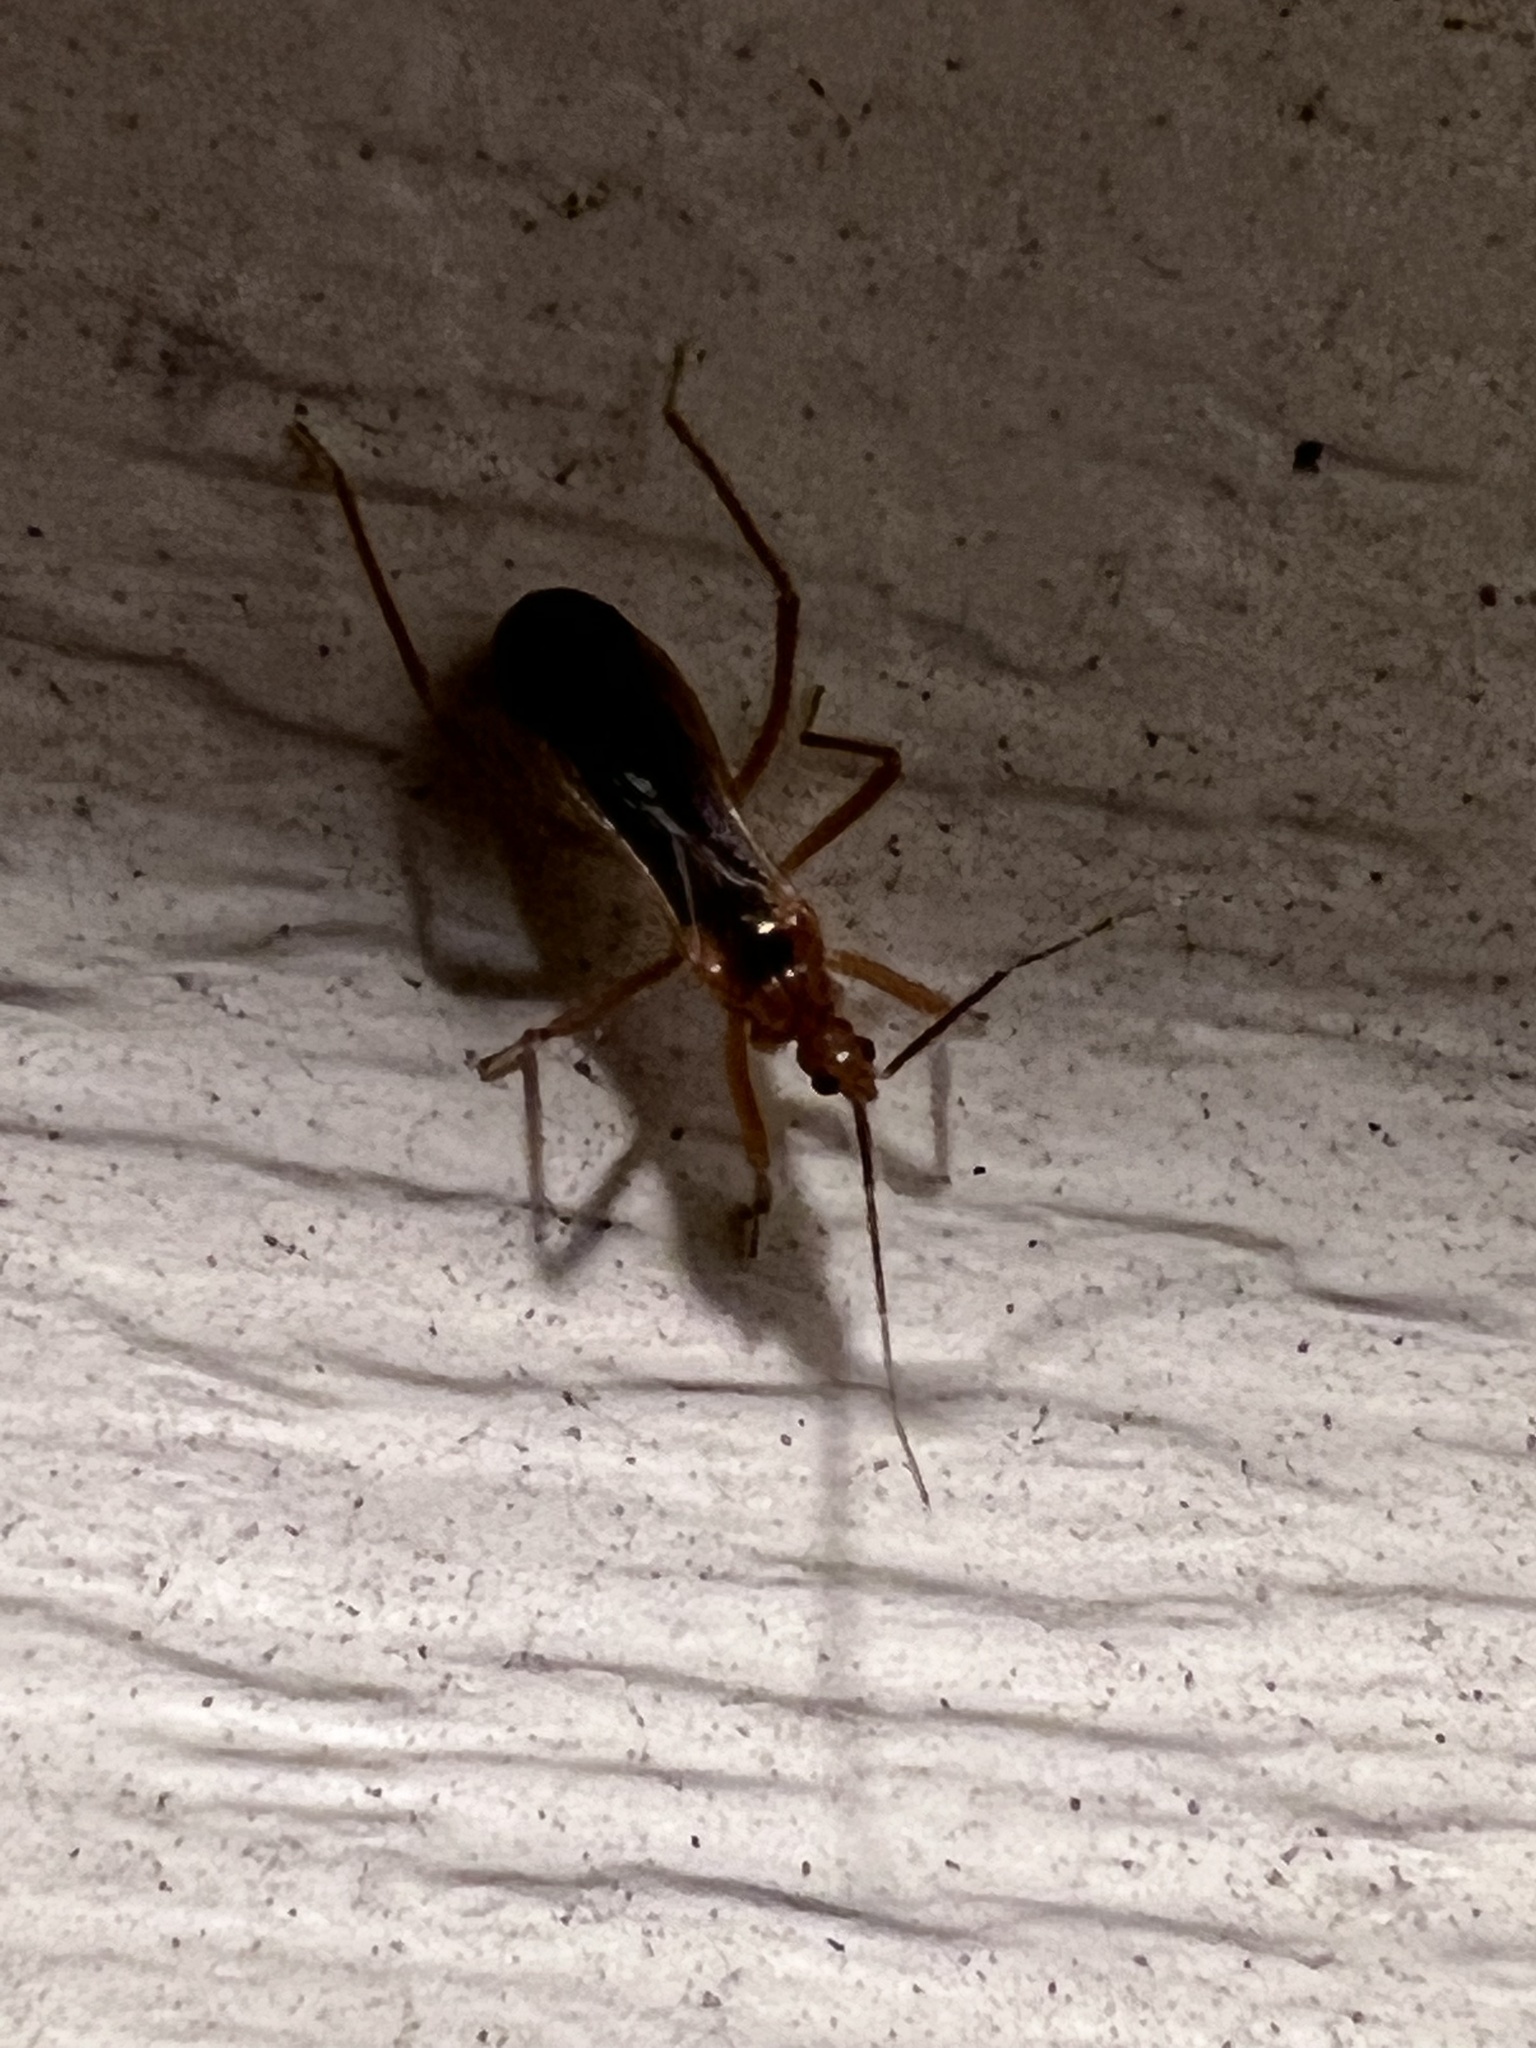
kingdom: Animalia
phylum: Arthropoda
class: Insecta
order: Hemiptera
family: Reduviidae
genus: Oncerotrachelus
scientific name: Oncerotrachelus acuminatus
